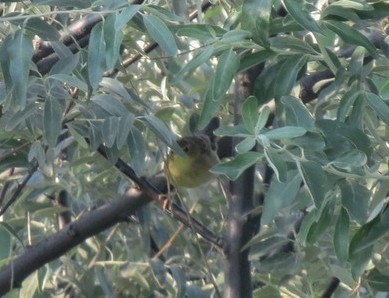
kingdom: Animalia
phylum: Chordata
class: Aves
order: Passeriformes
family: Phylloscopidae
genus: Phylloscopus
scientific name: Phylloscopus trochiloides
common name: Greenish warbler
